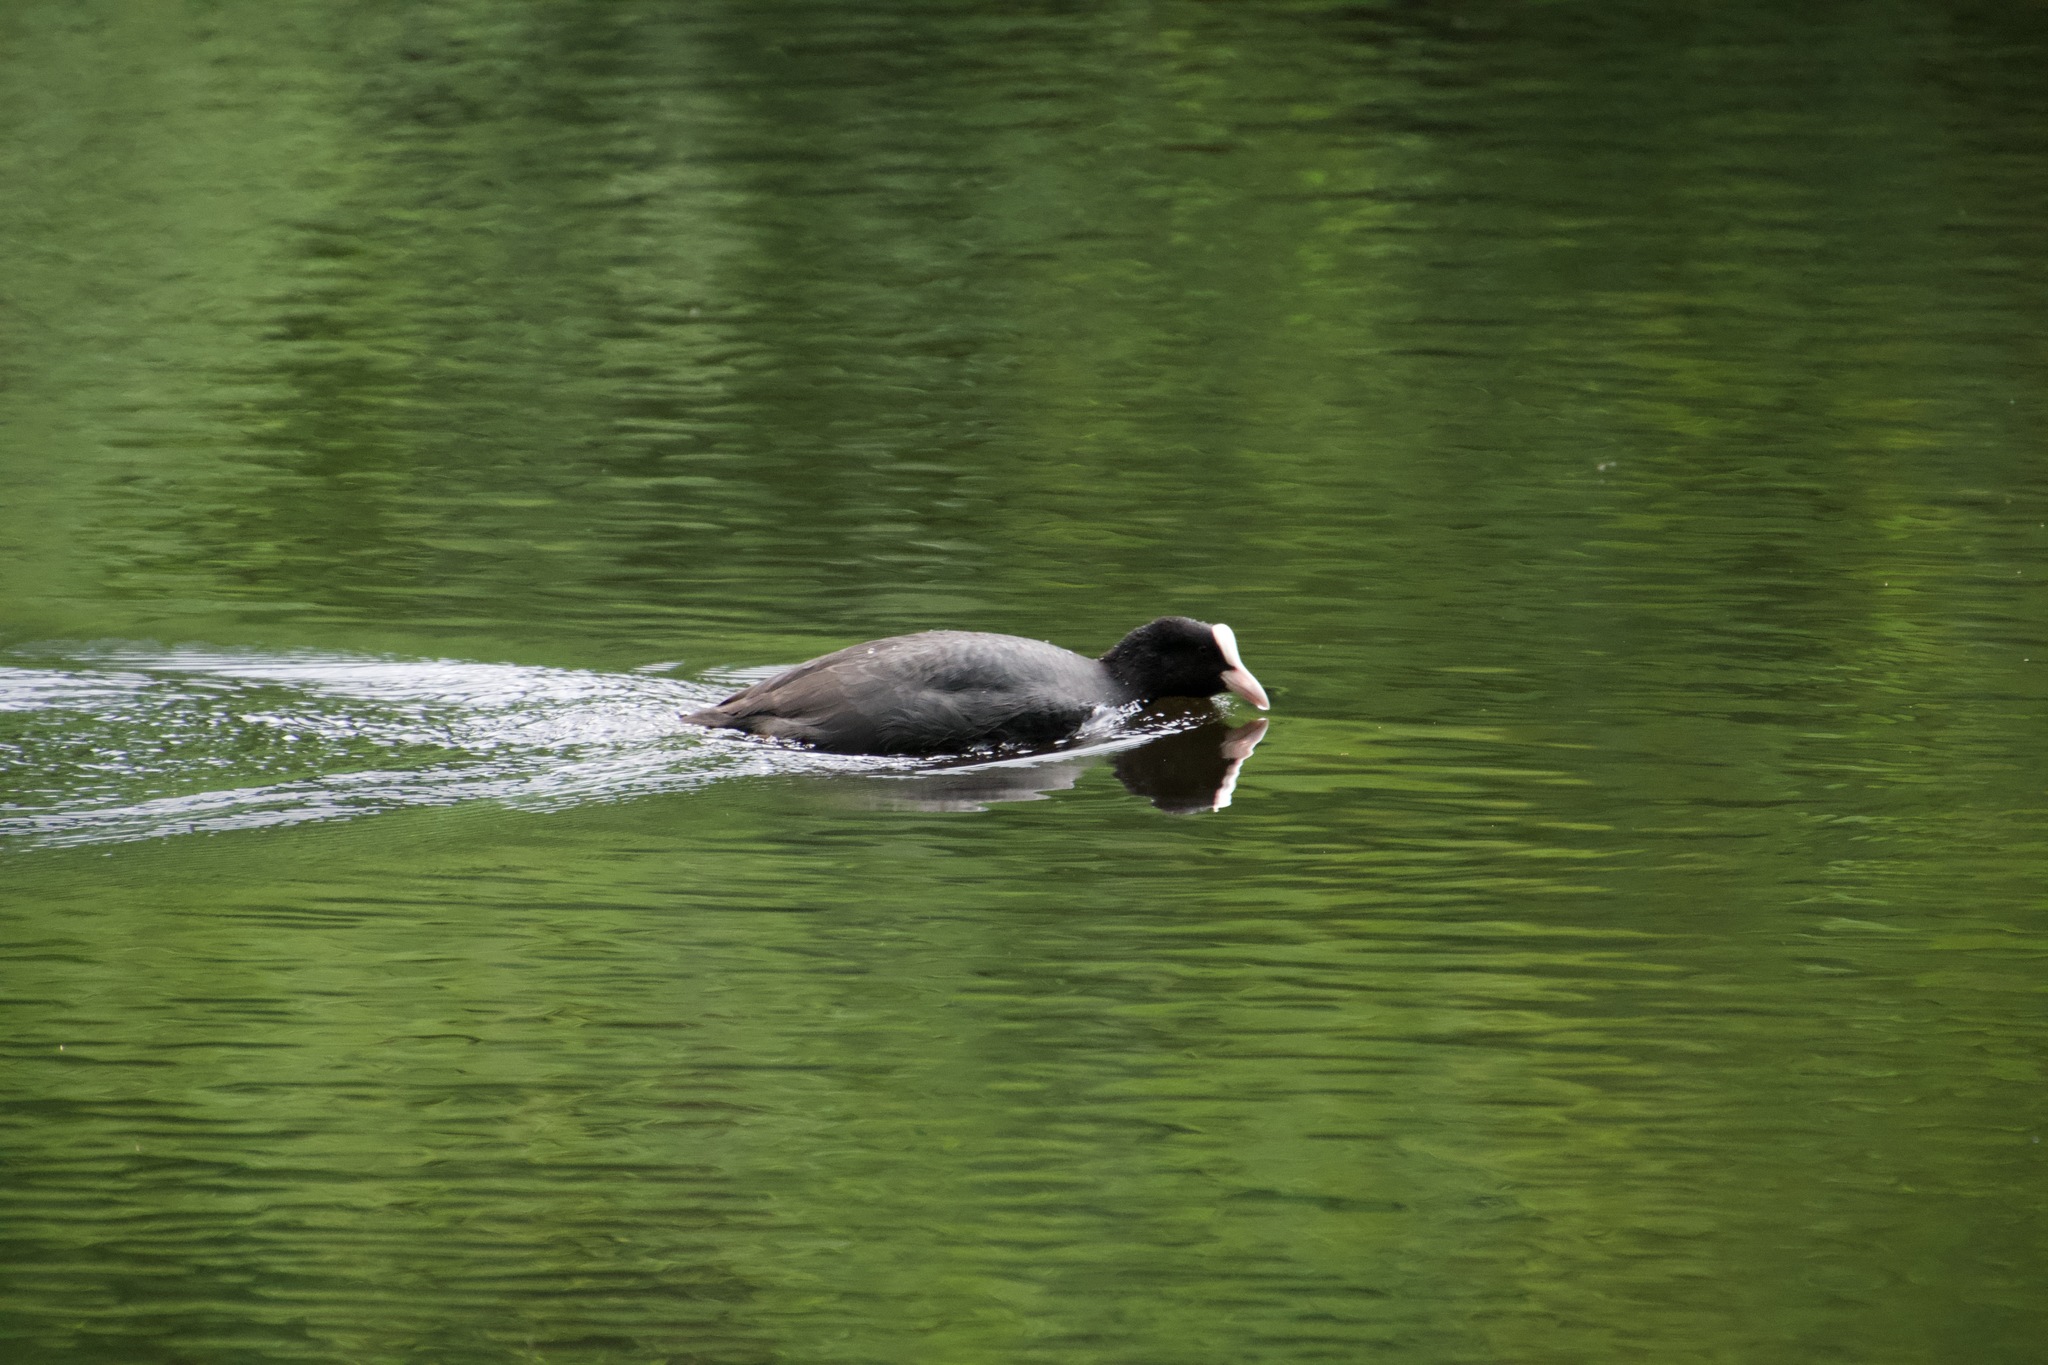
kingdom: Animalia
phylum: Chordata
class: Aves
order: Gruiformes
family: Rallidae
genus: Fulica
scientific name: Fulica atra
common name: Eurasian coot
